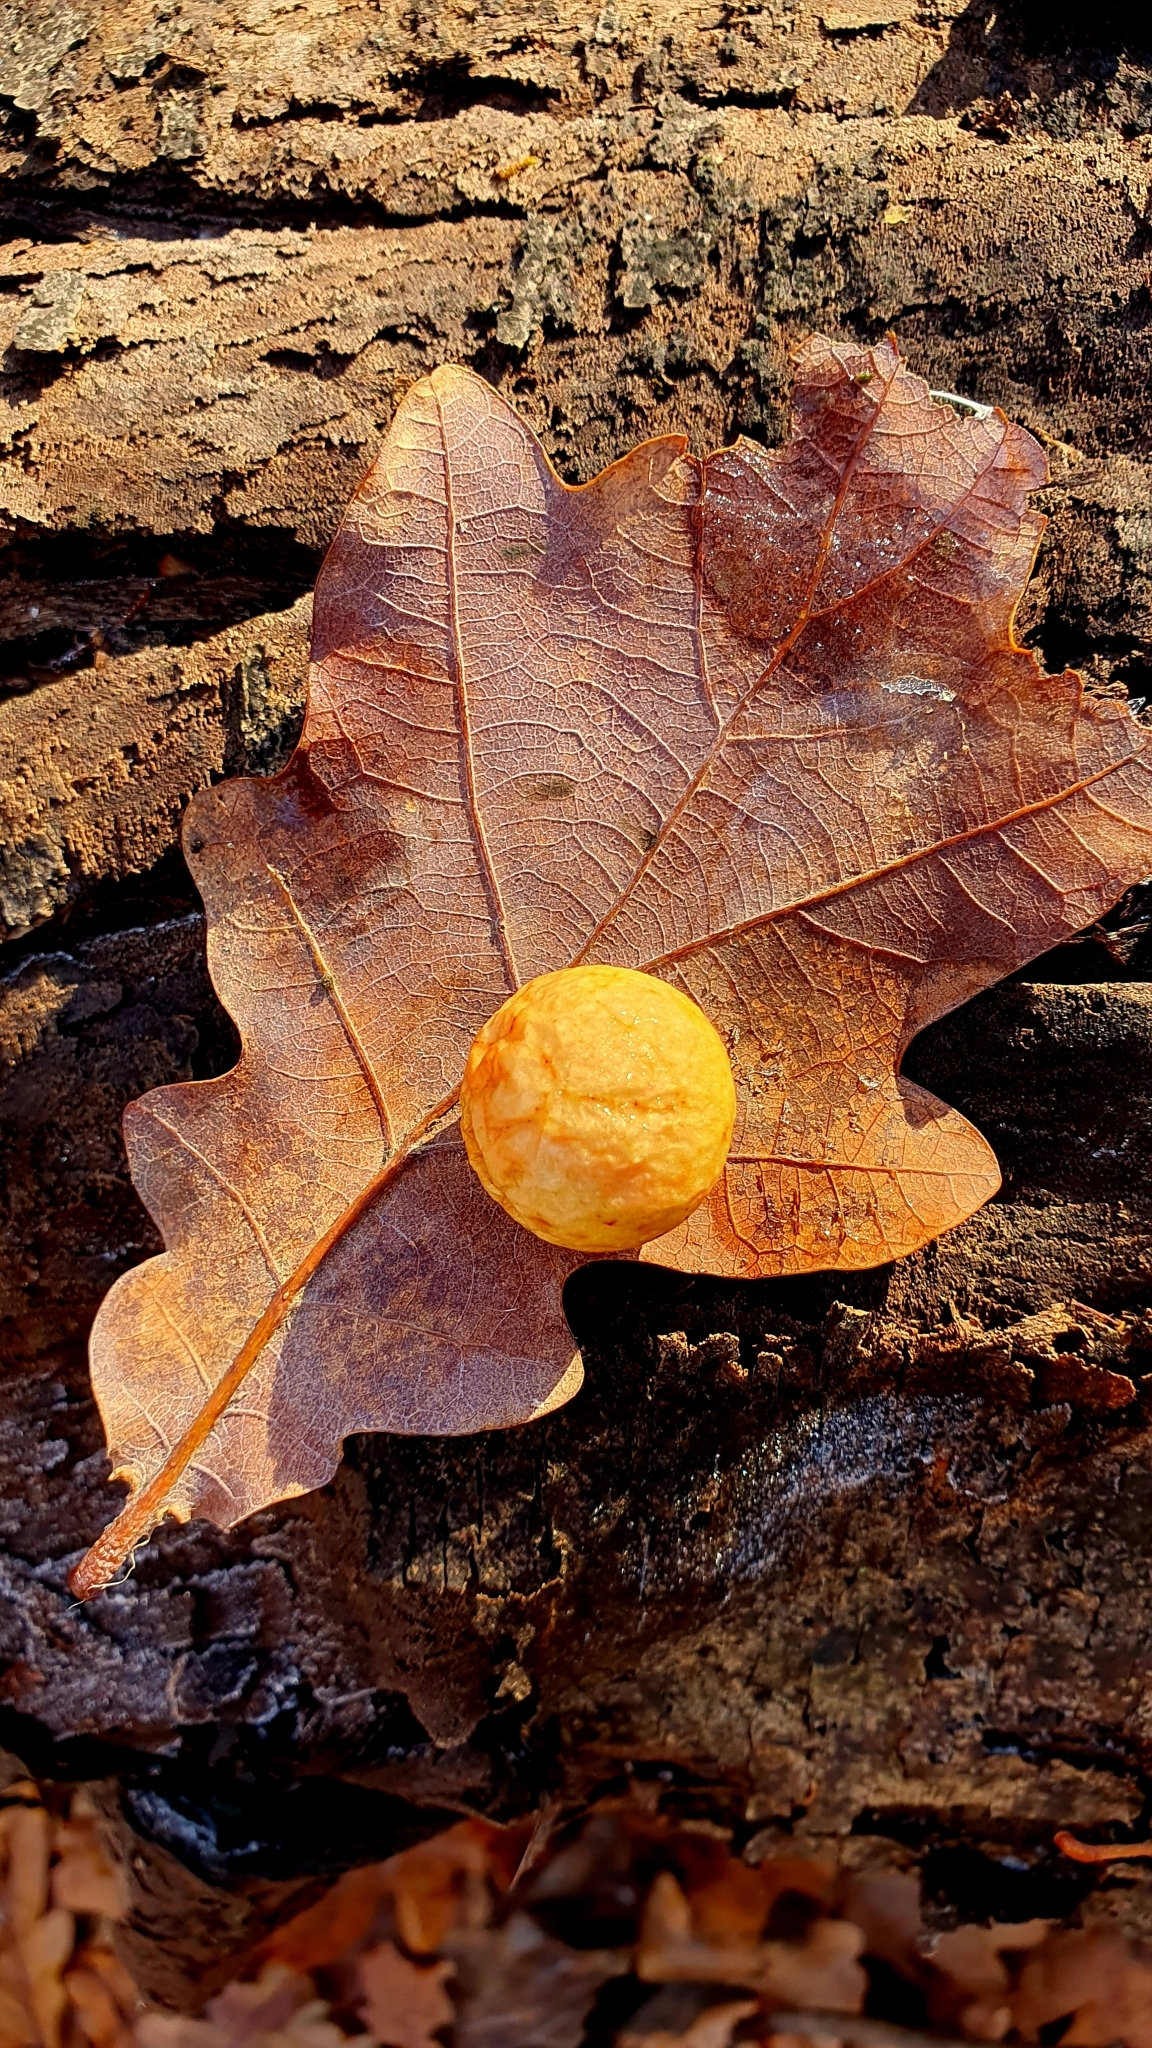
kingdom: Animalia
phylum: Arthropoda
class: Insecta
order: Hymenoptera
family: Cynipidae
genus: Cynips
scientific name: Cynips quercusfolii
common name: Cherry gall
